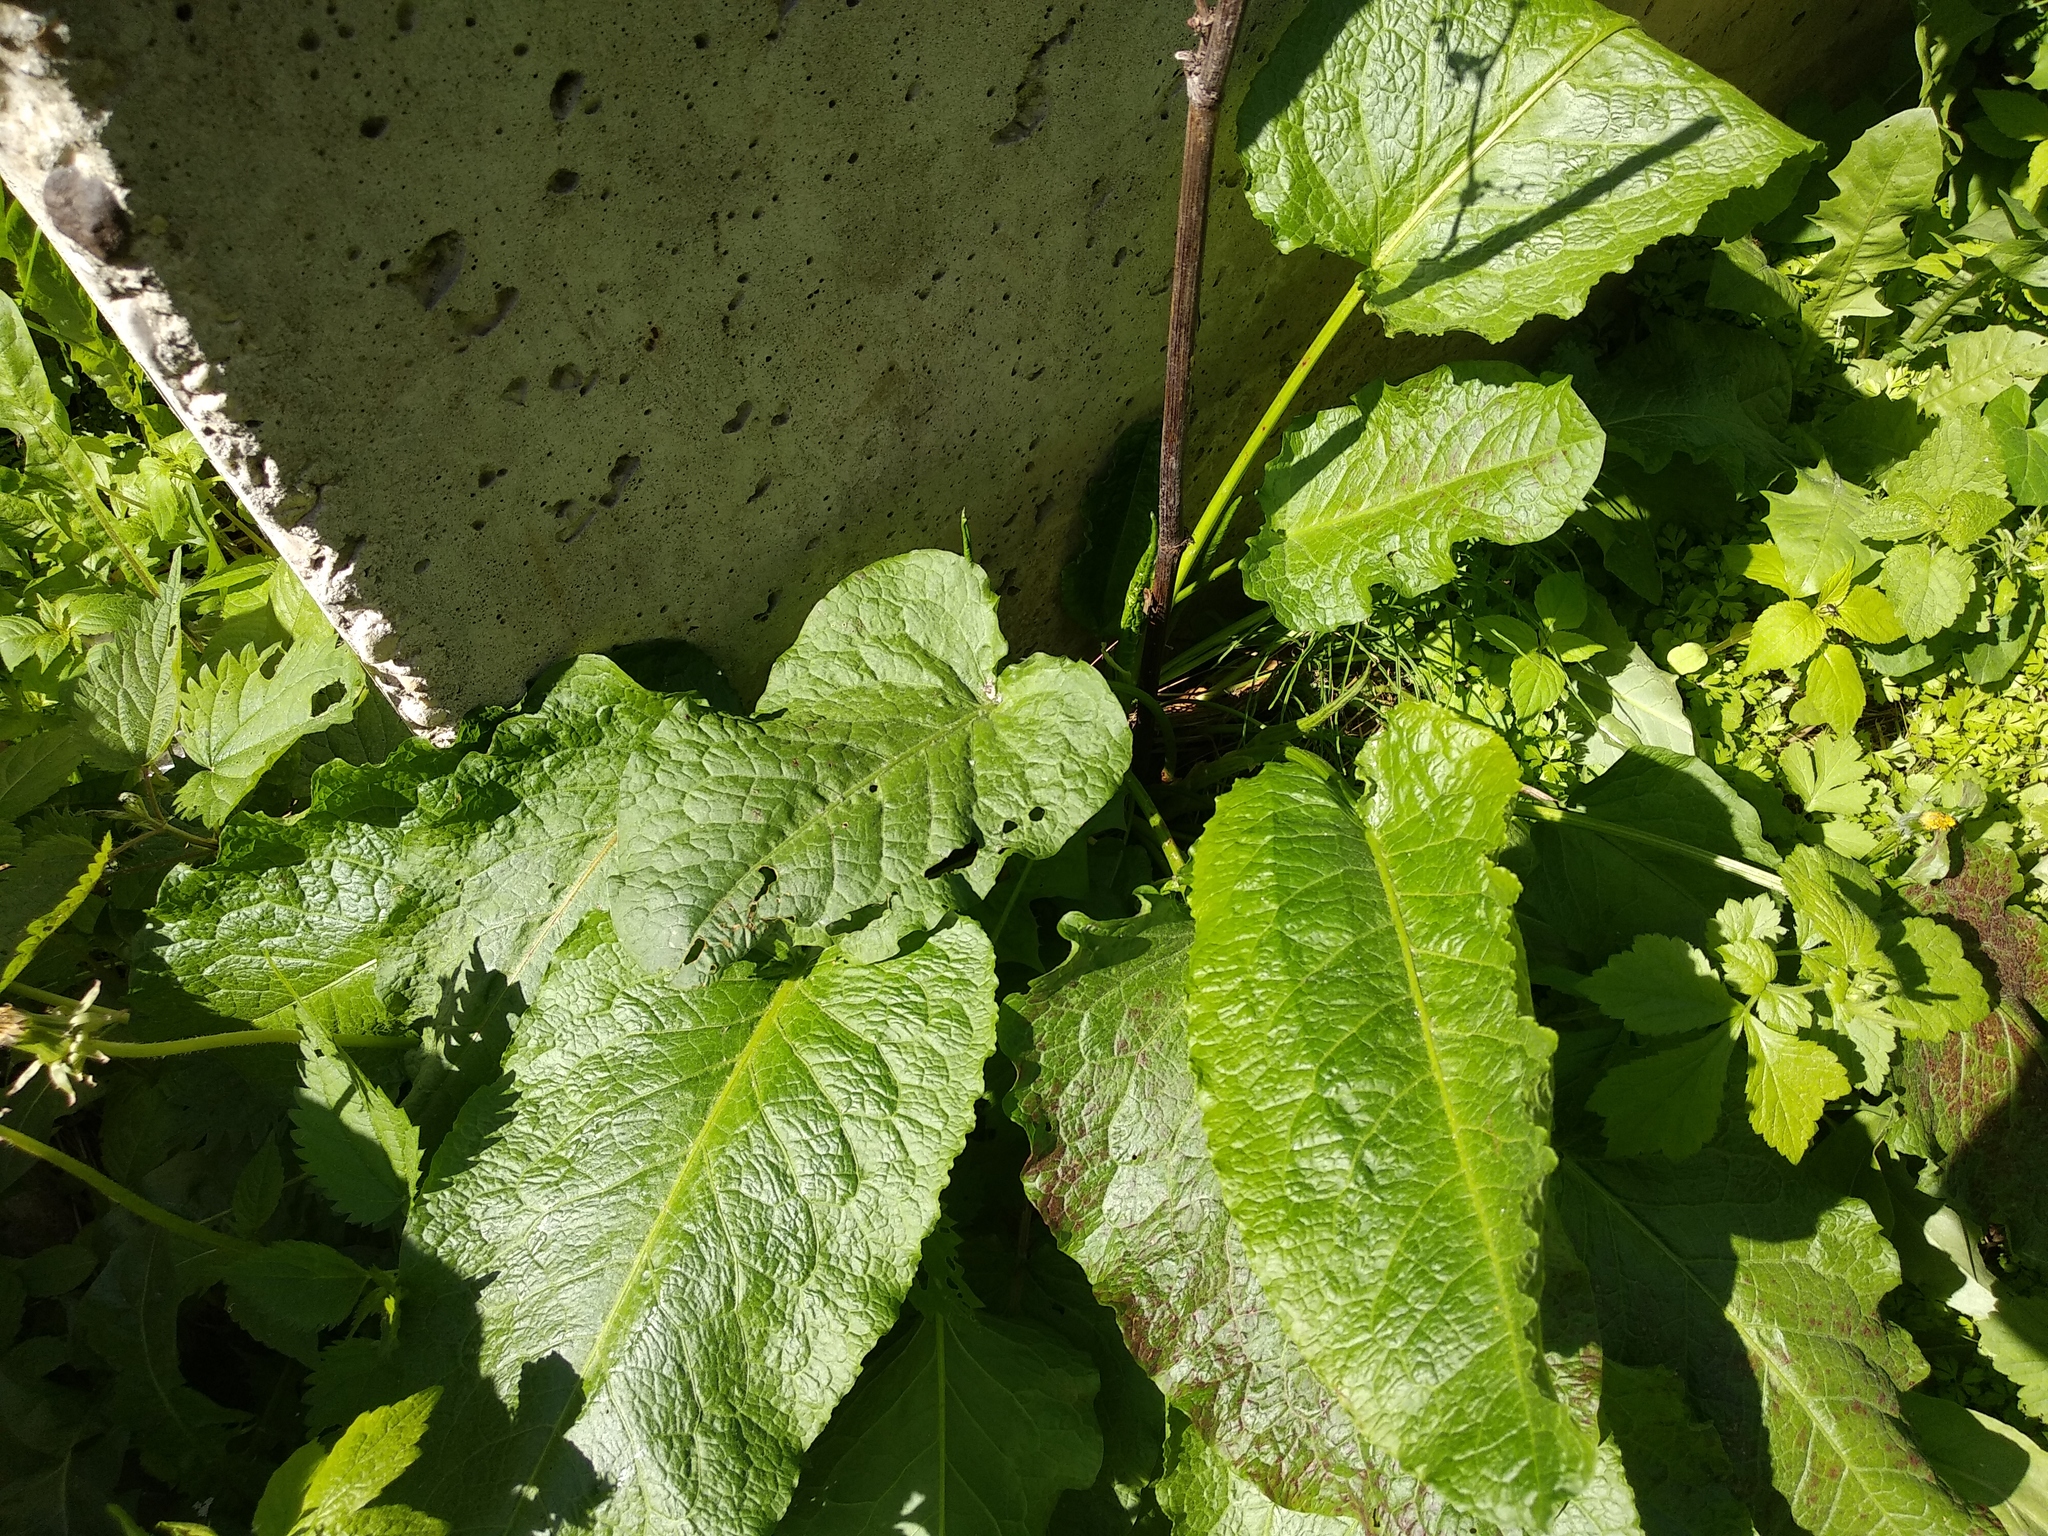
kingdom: Plantae
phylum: Tracheophyta
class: Magnoliopsida
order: Caryophyllales
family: Polygonaceae
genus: Rumex
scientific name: Rumex obtusifolius
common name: Bitter dock
